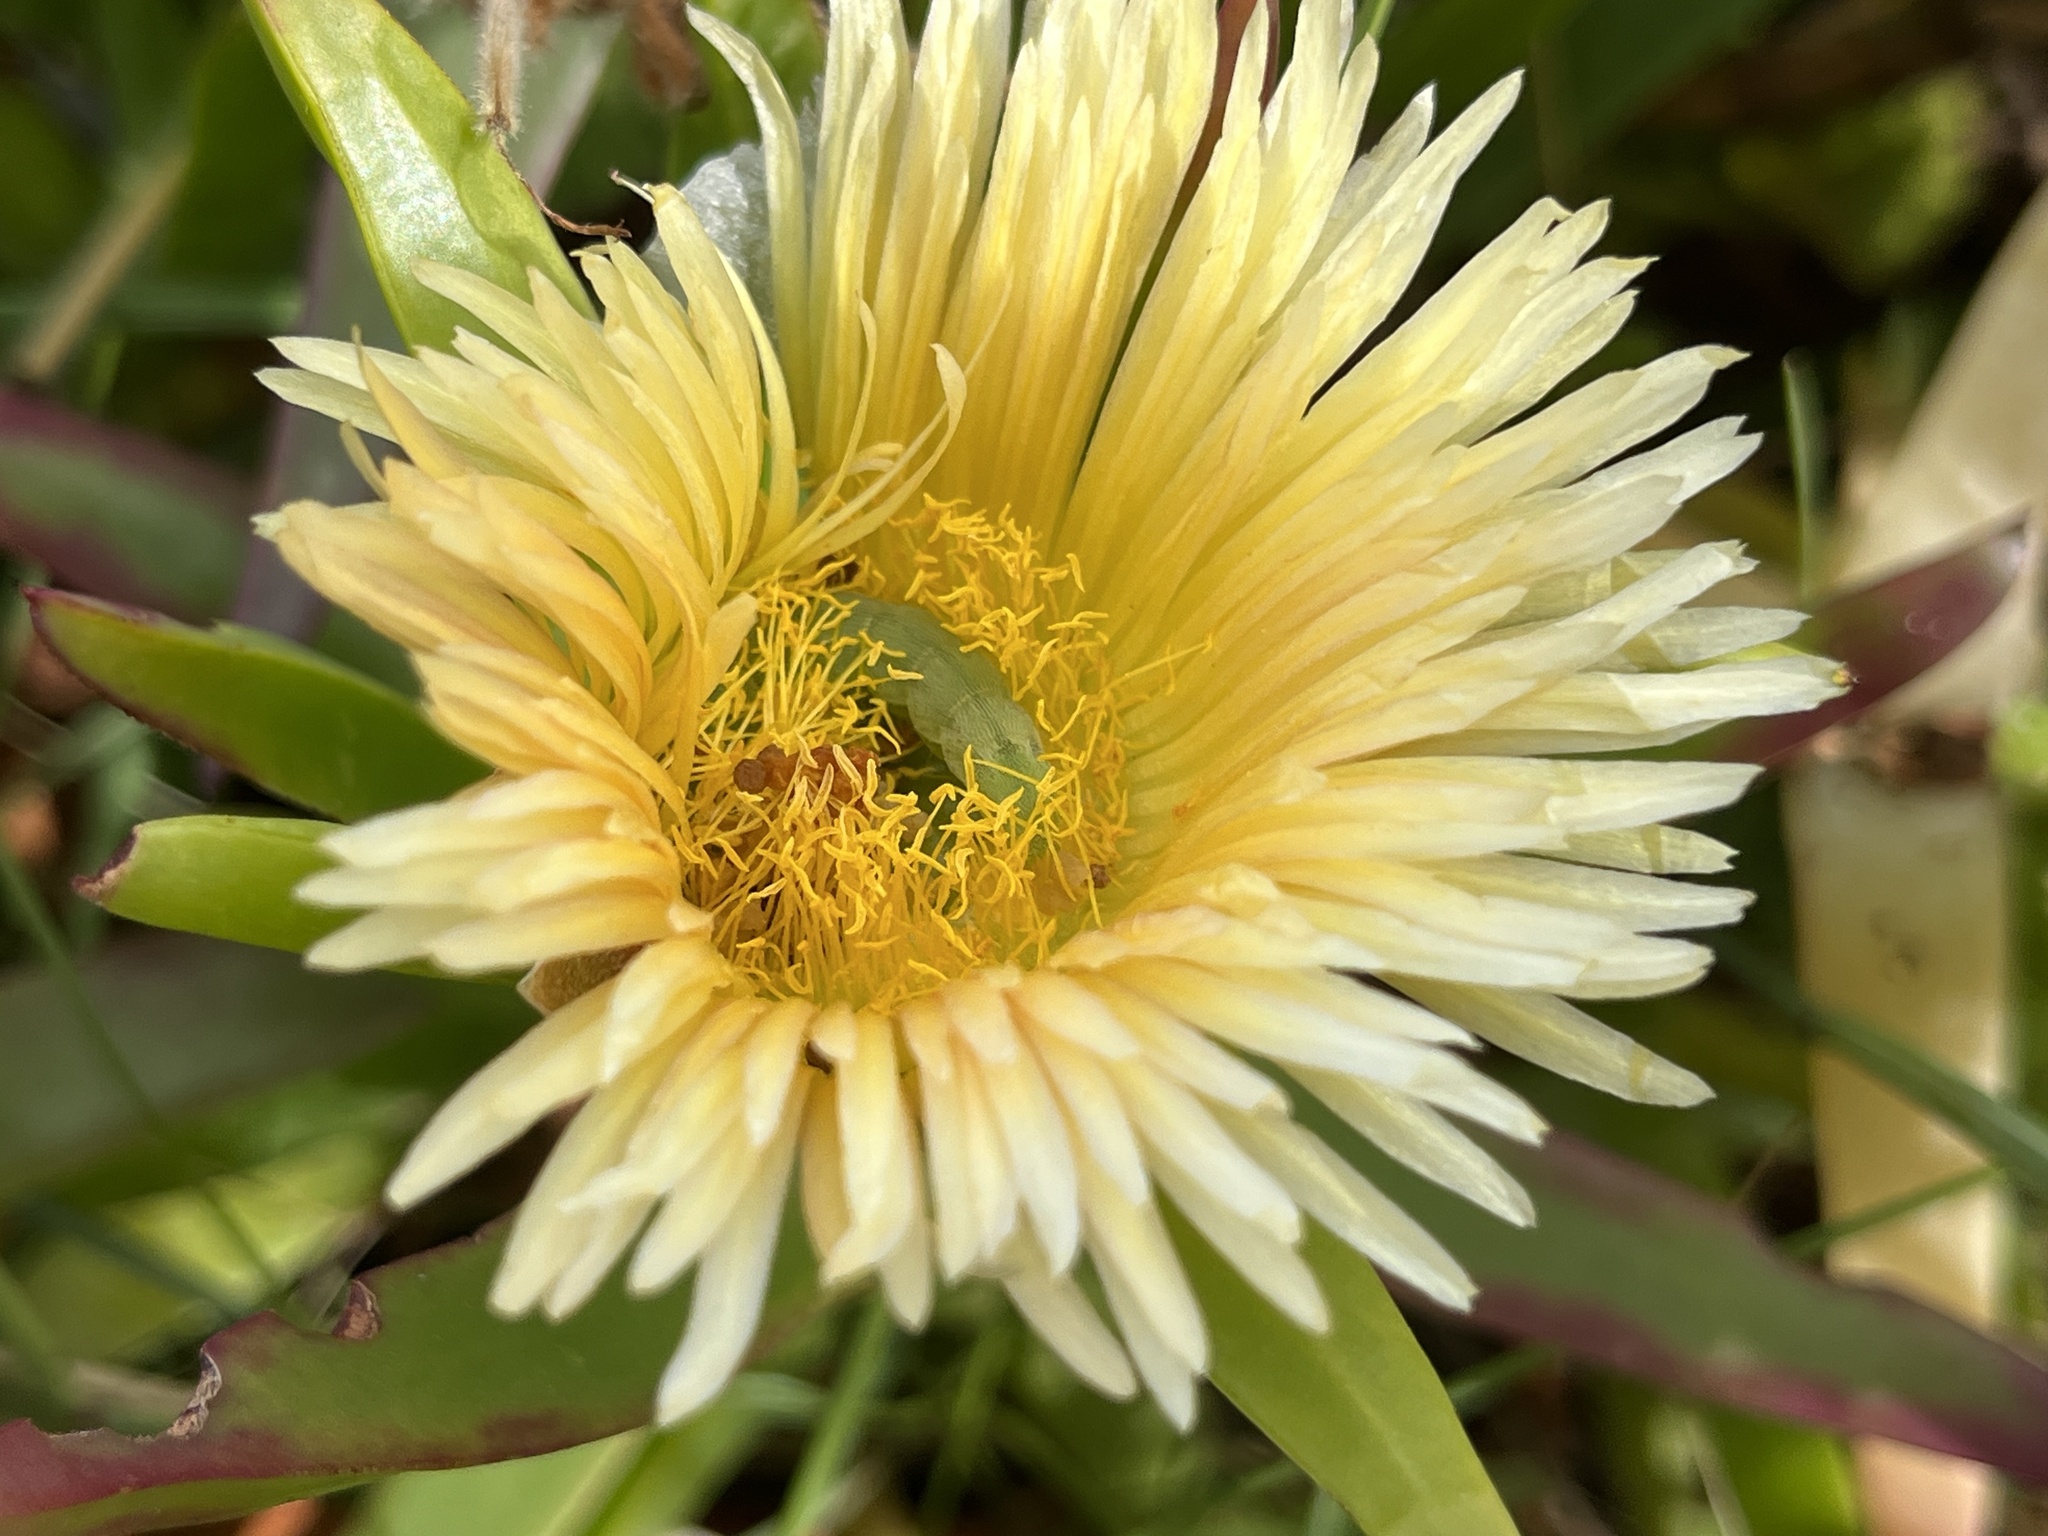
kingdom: Plantae
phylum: Tracheophyta
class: Magnoliopsida
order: Caryophyllales
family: Aizoaceae
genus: Carpobrotus
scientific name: Carpobrotus edulis
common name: Hottentot-fig
